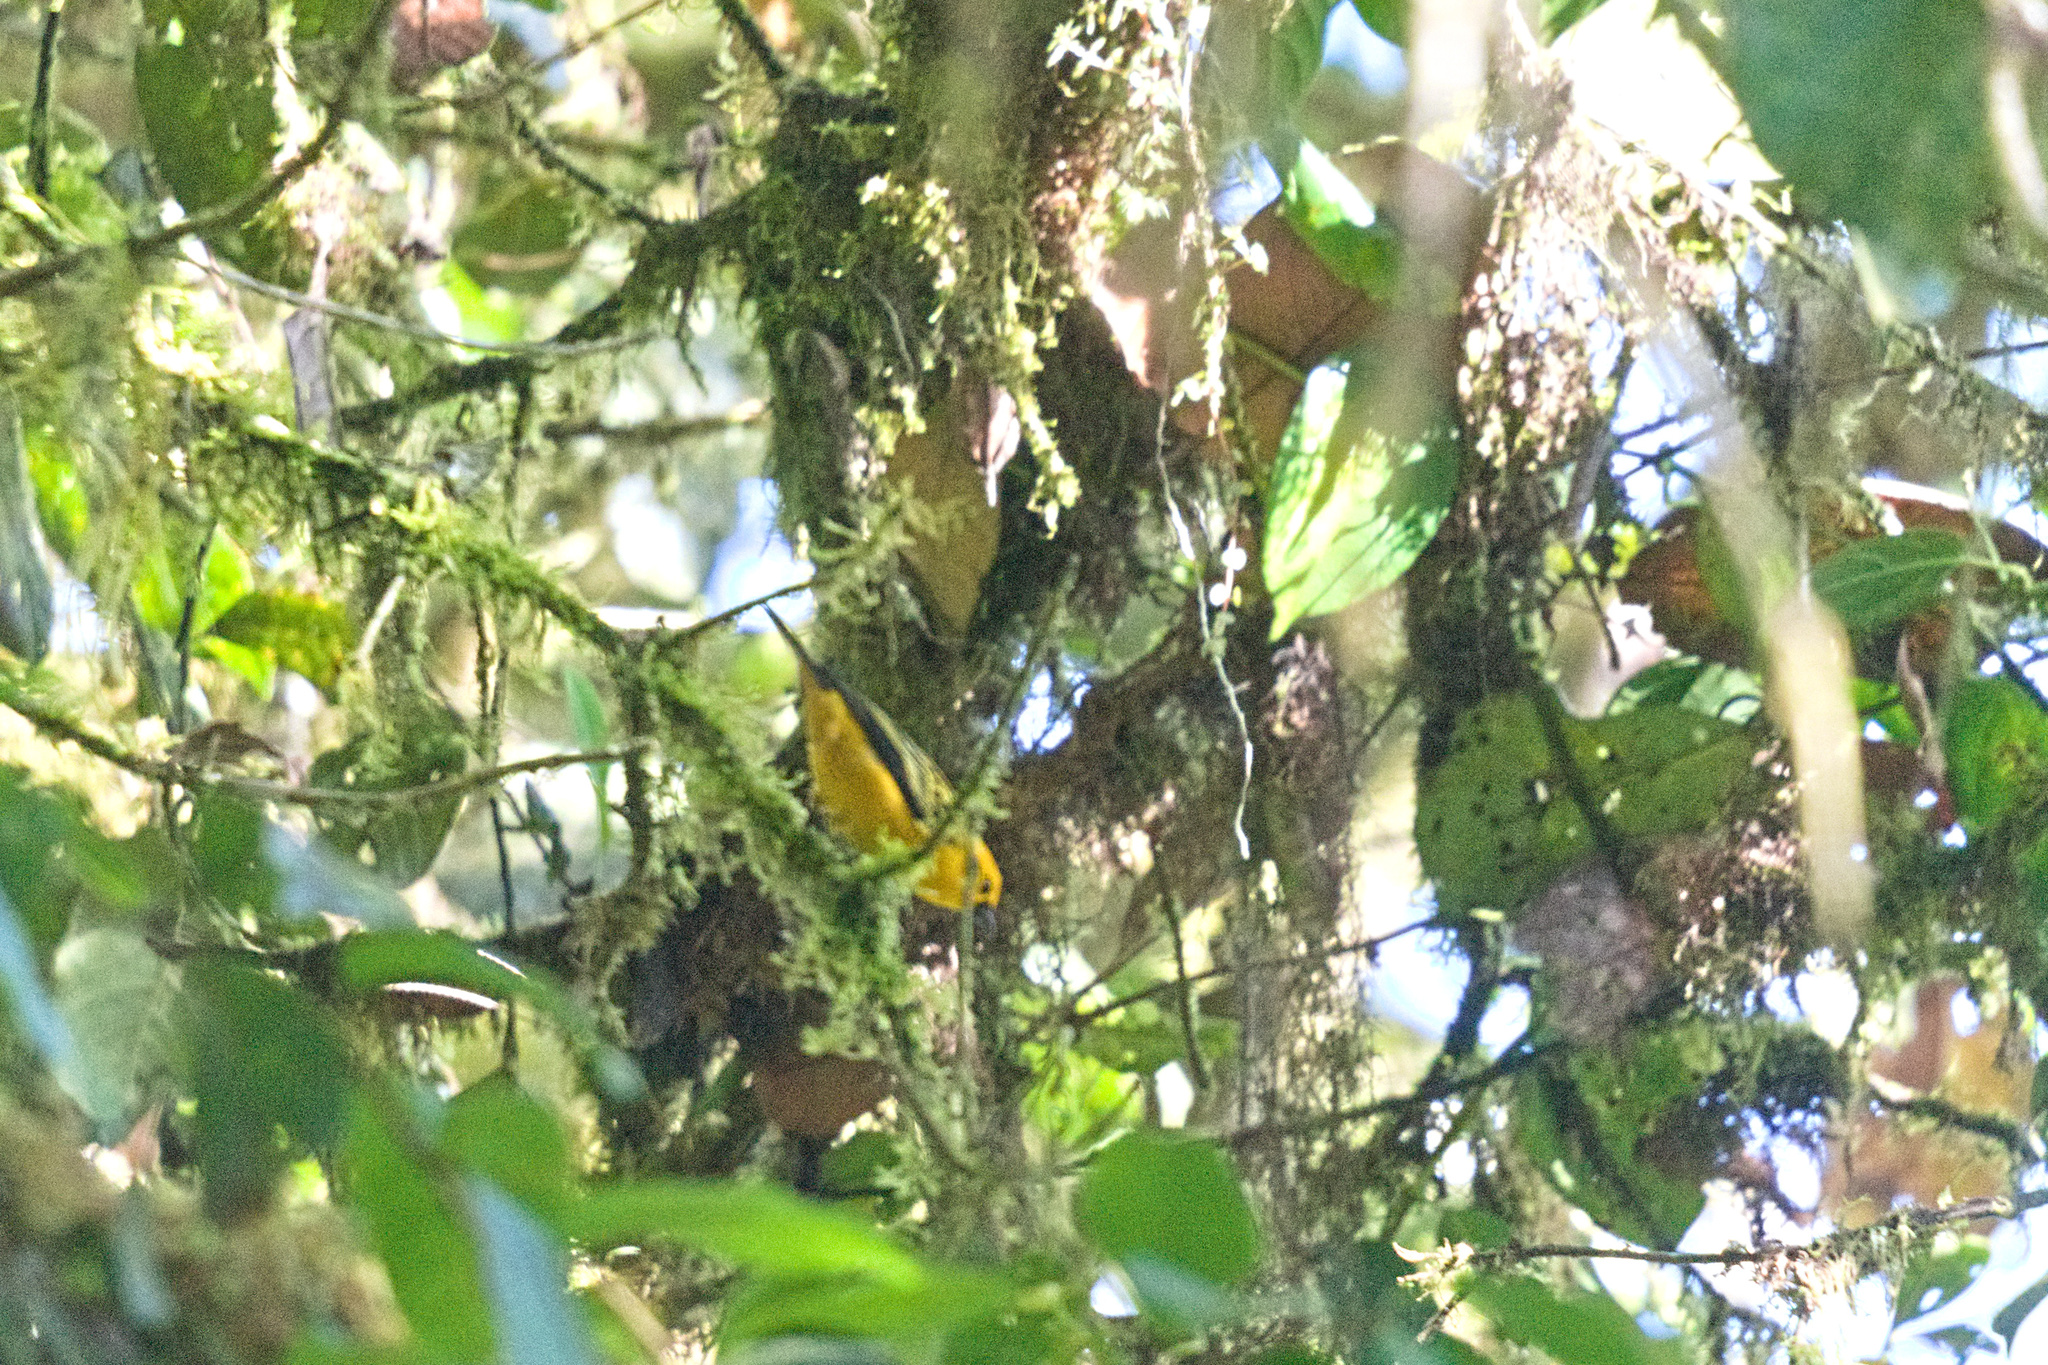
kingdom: Animalia
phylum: Chordata
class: Aves
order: Passeriformes
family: Thraupidae
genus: Tangara
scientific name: Tangara arthus
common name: Golden tanager
